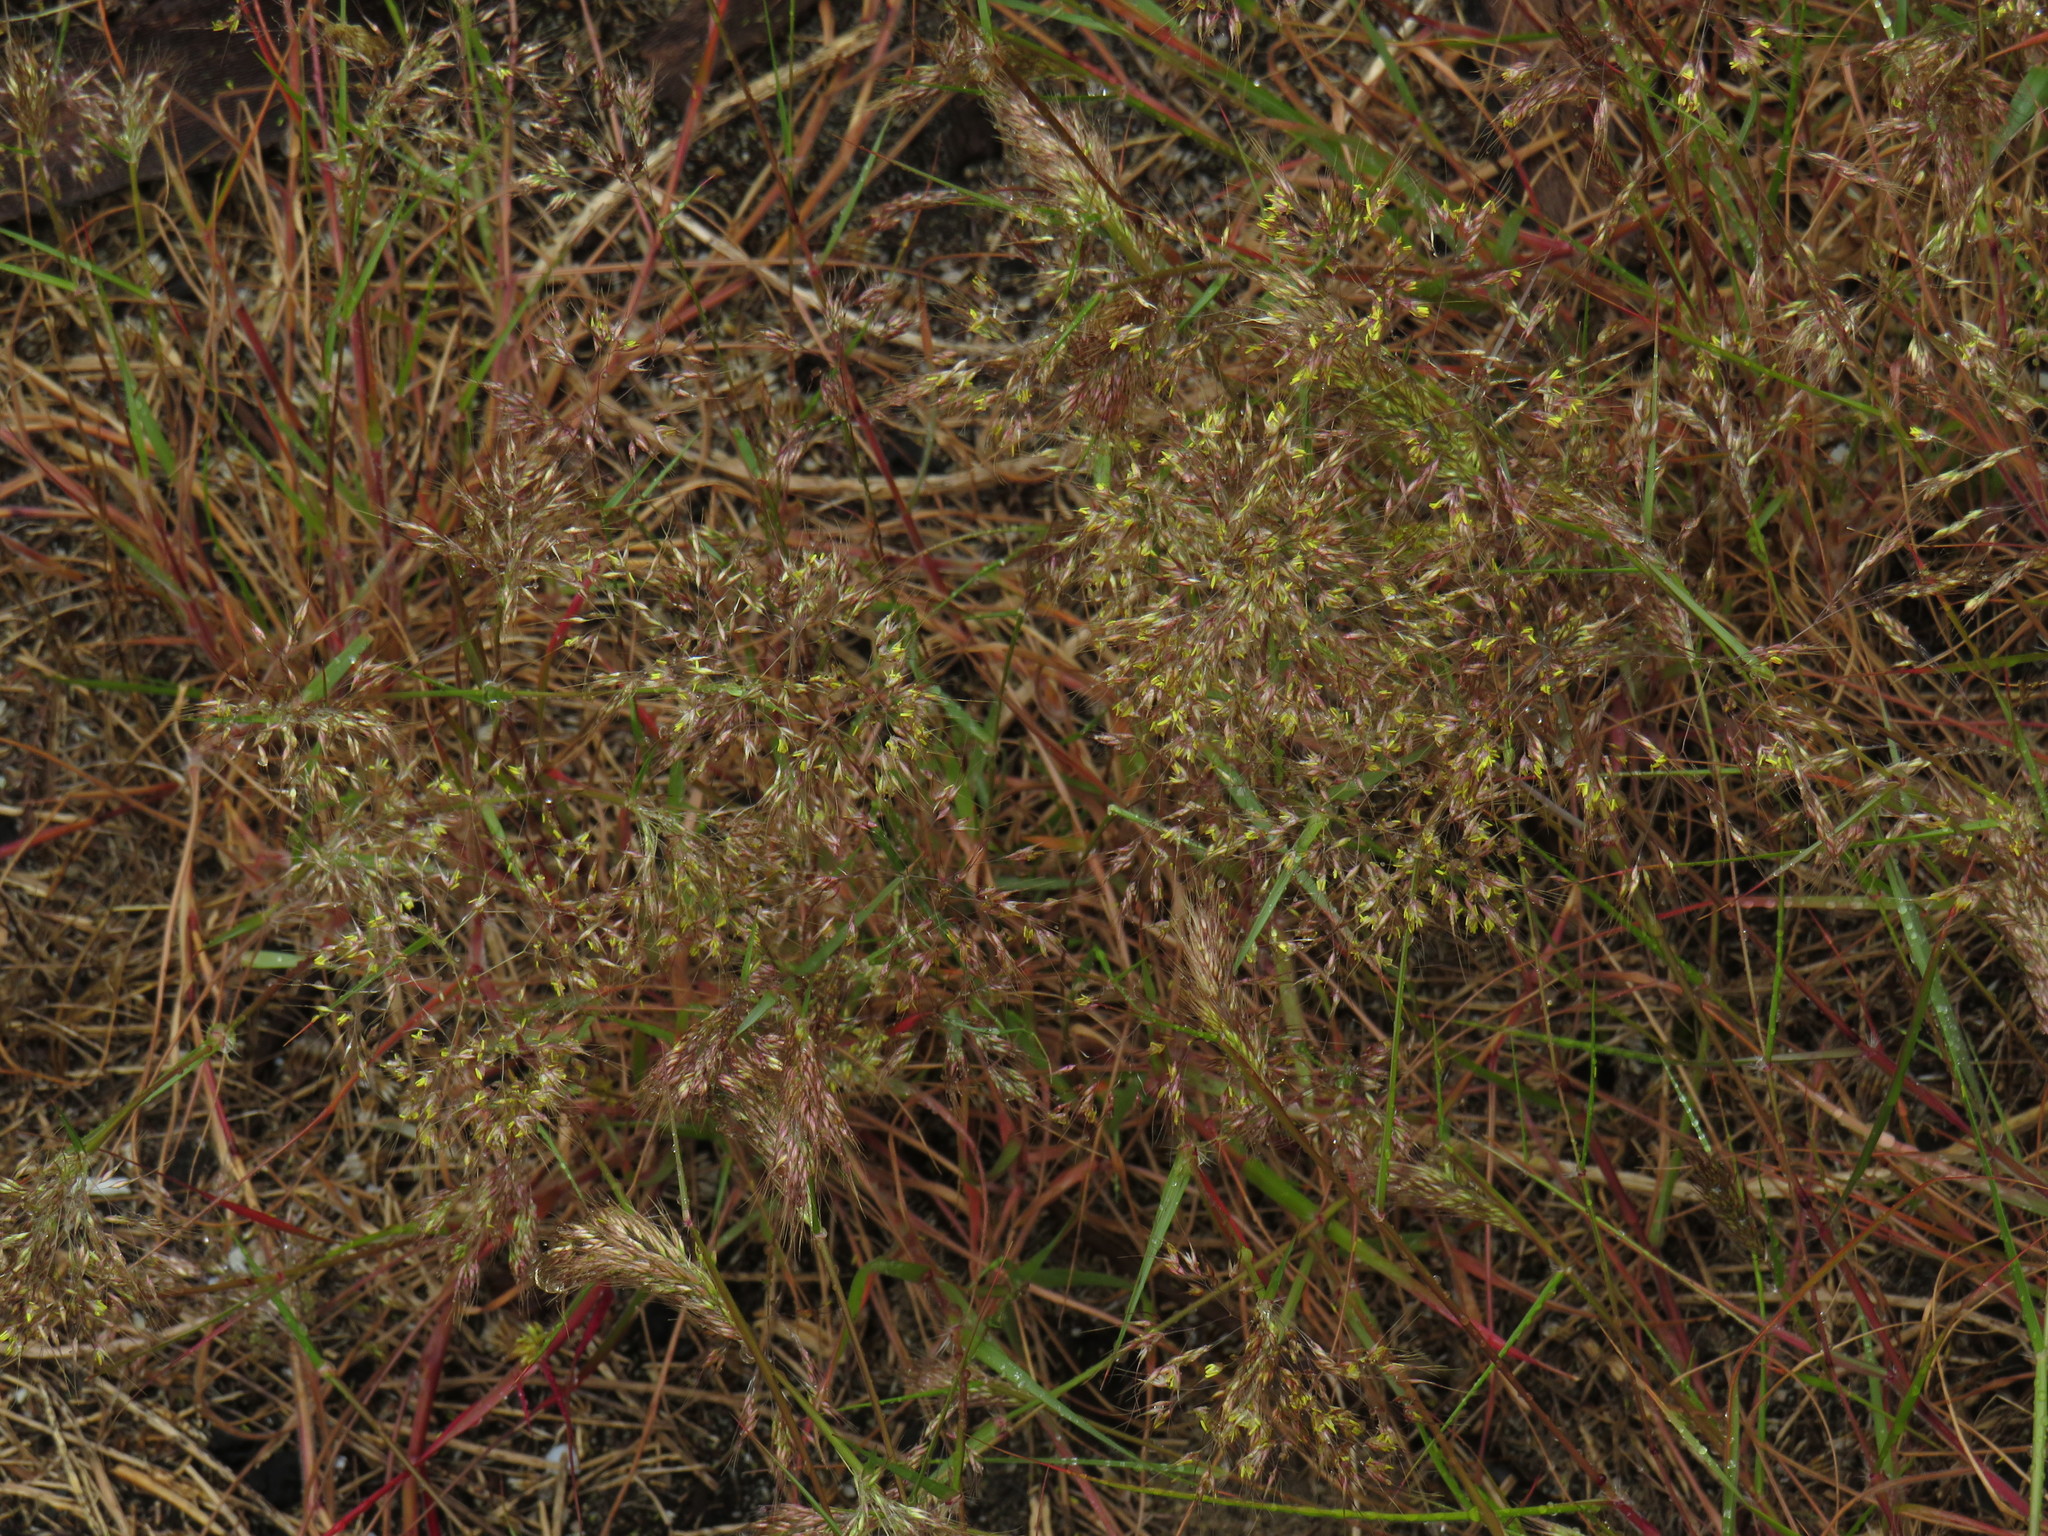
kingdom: Plantae
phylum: Tracheophyta
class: Liliopsida
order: Poales
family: Poaceae
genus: Pentameris
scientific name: Pentameris airoides
